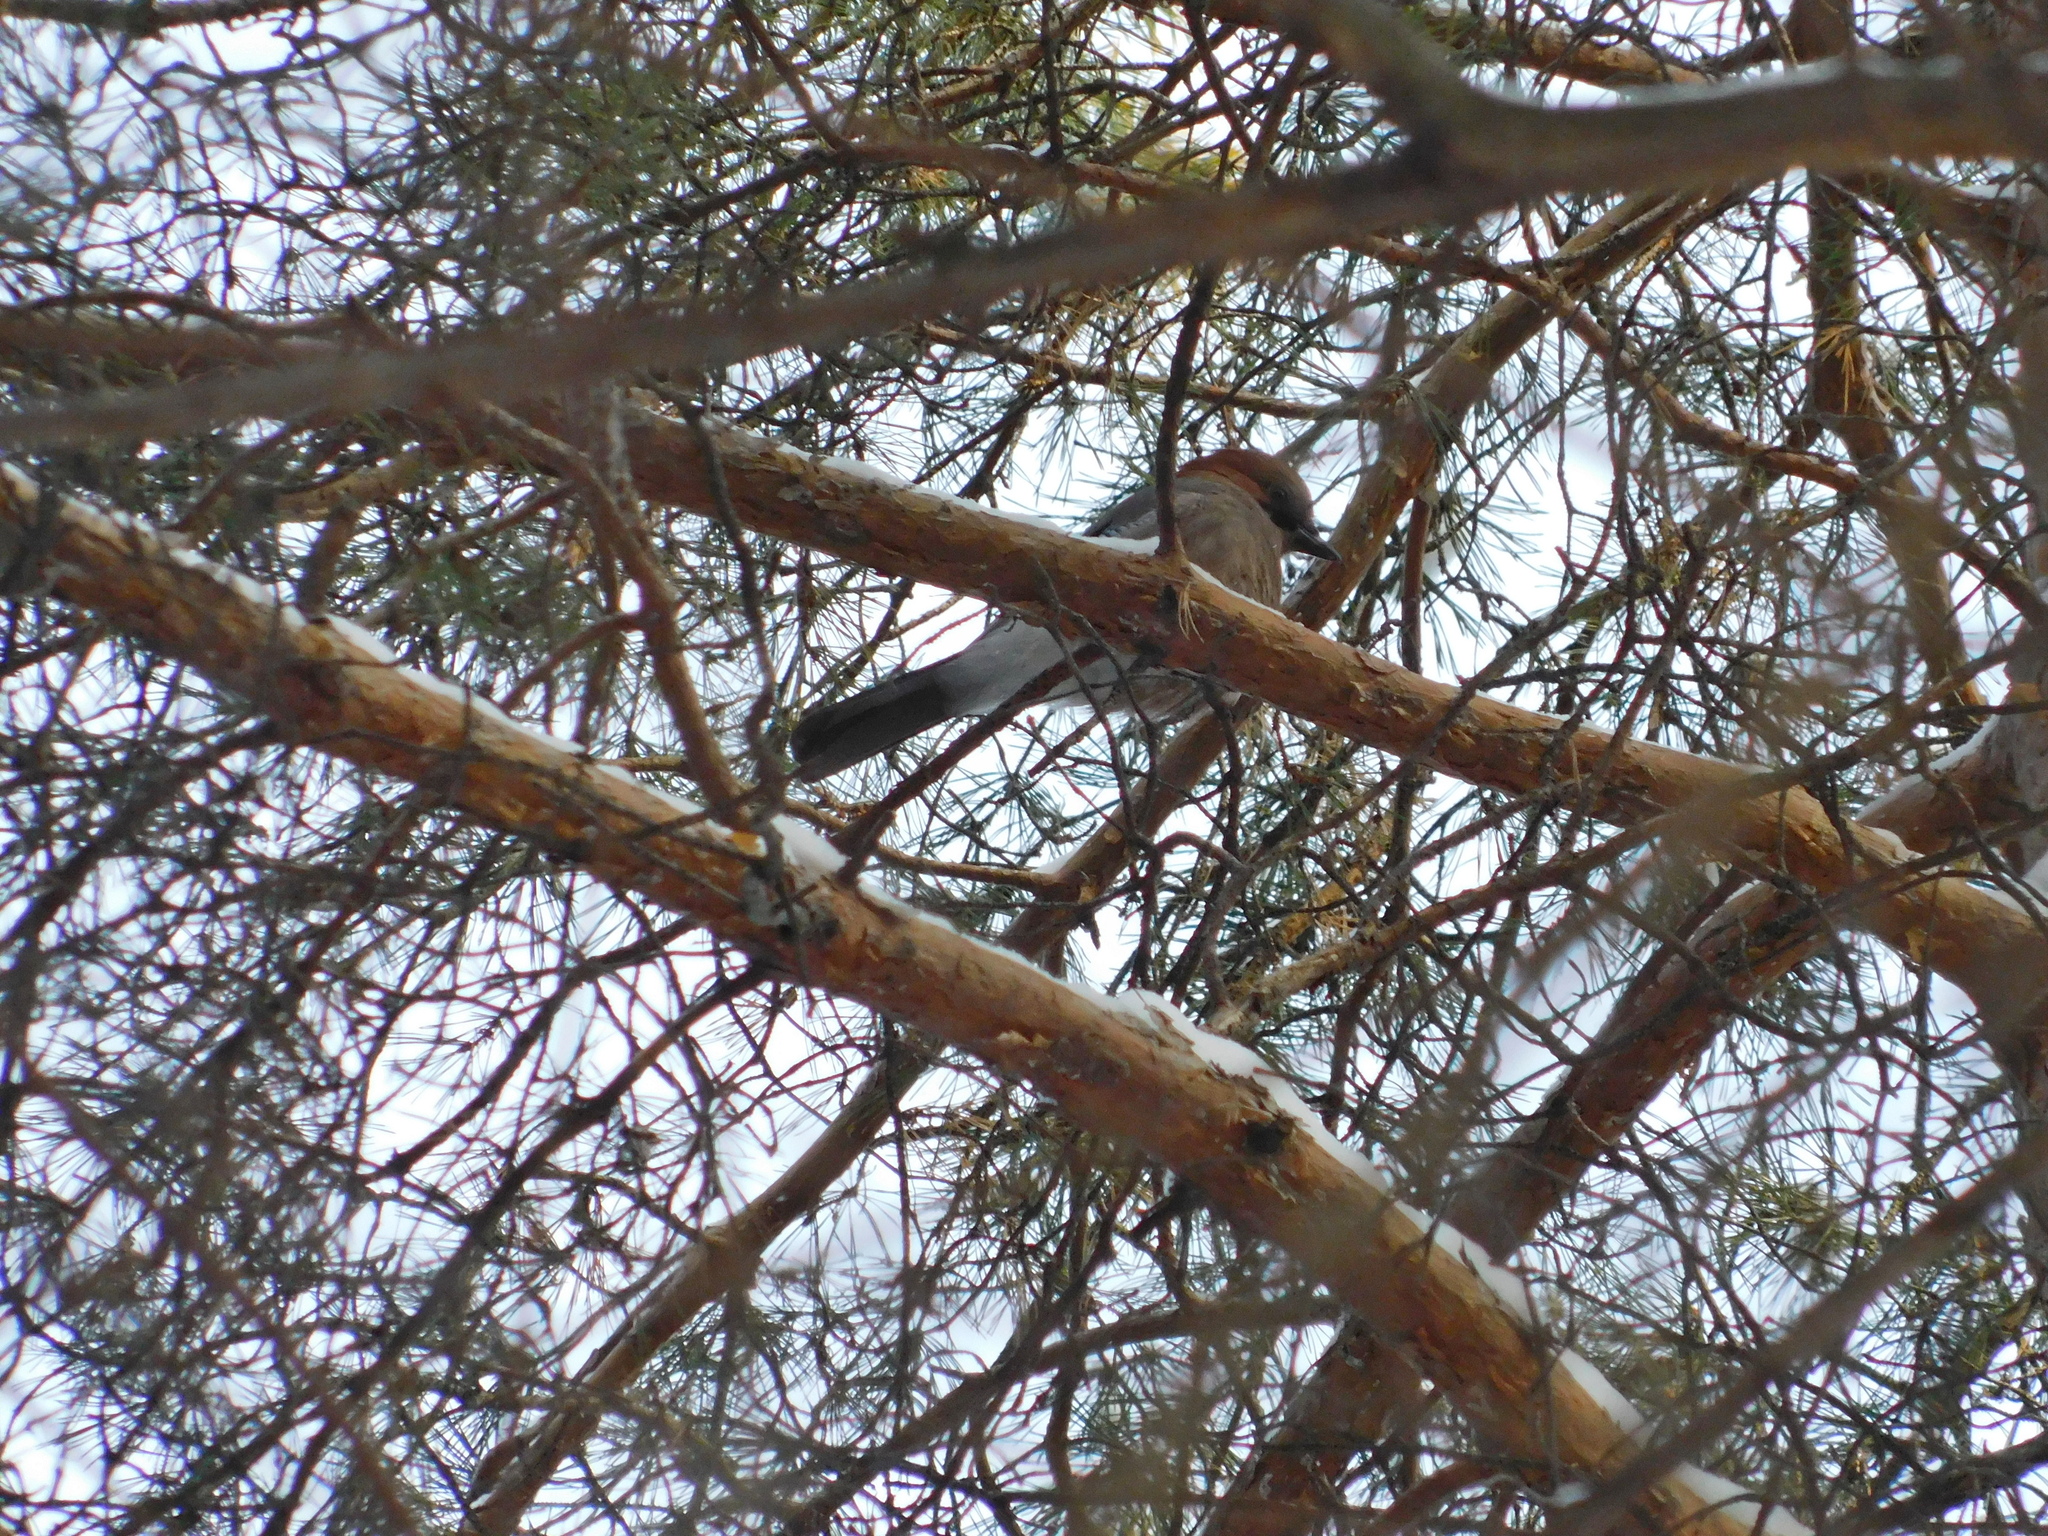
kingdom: Animalia
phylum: Chordata
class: Aves
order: Passeriformes
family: Corvidae
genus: Garrulus
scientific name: Garrulus glandarius
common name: Eurasian jay
